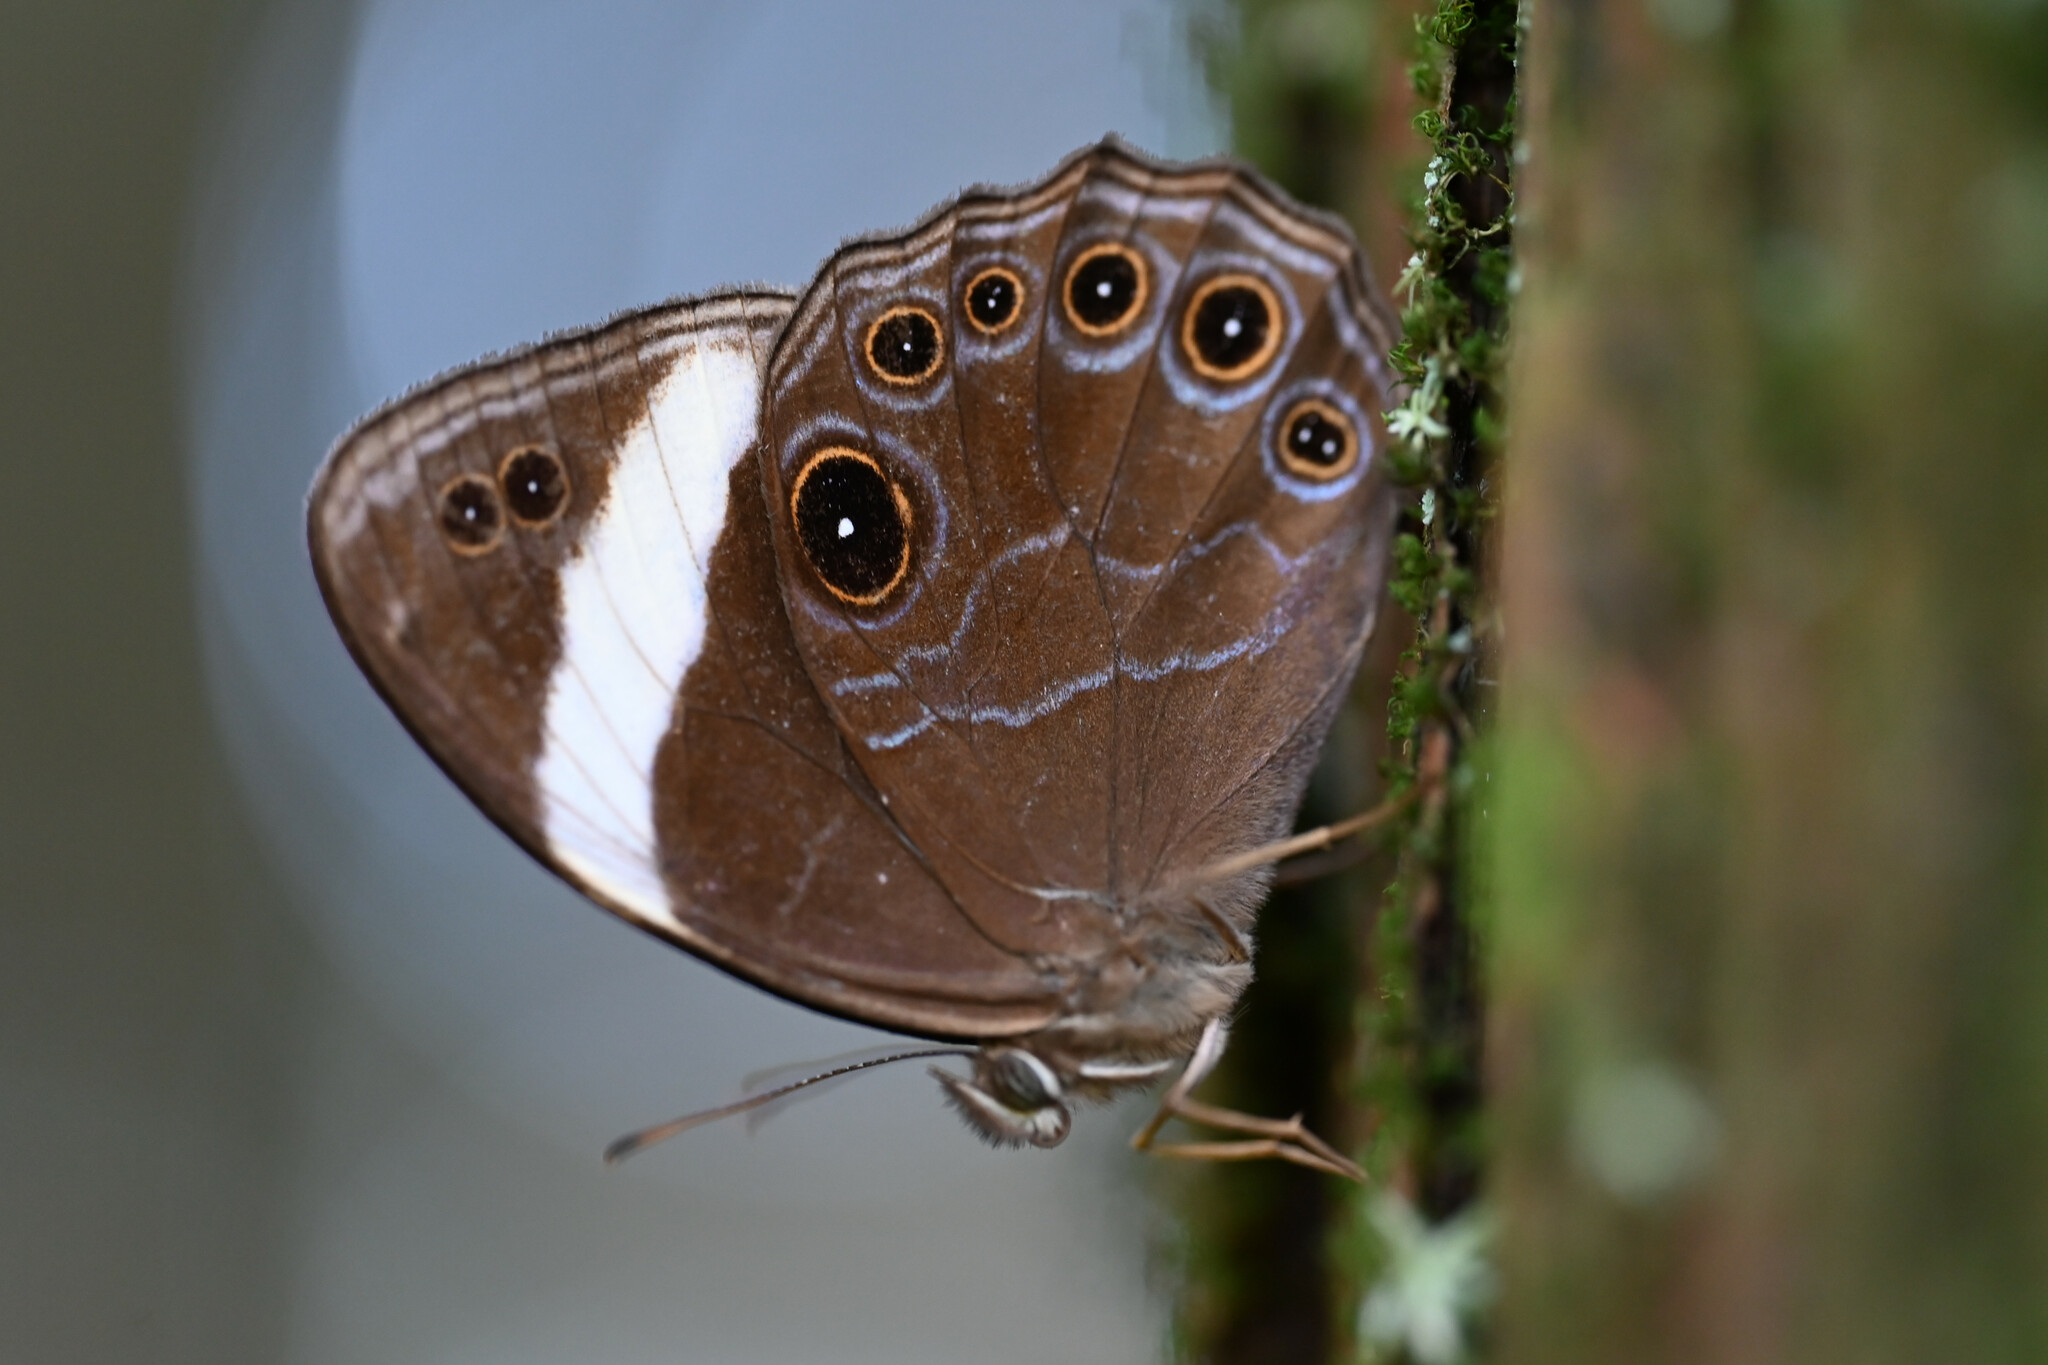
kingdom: Animalia
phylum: Arthropoda
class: Insecta
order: Lepidoptera
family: Nymphalidae
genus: Lethe
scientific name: Lethe verma
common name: Straight-banded treebrown
